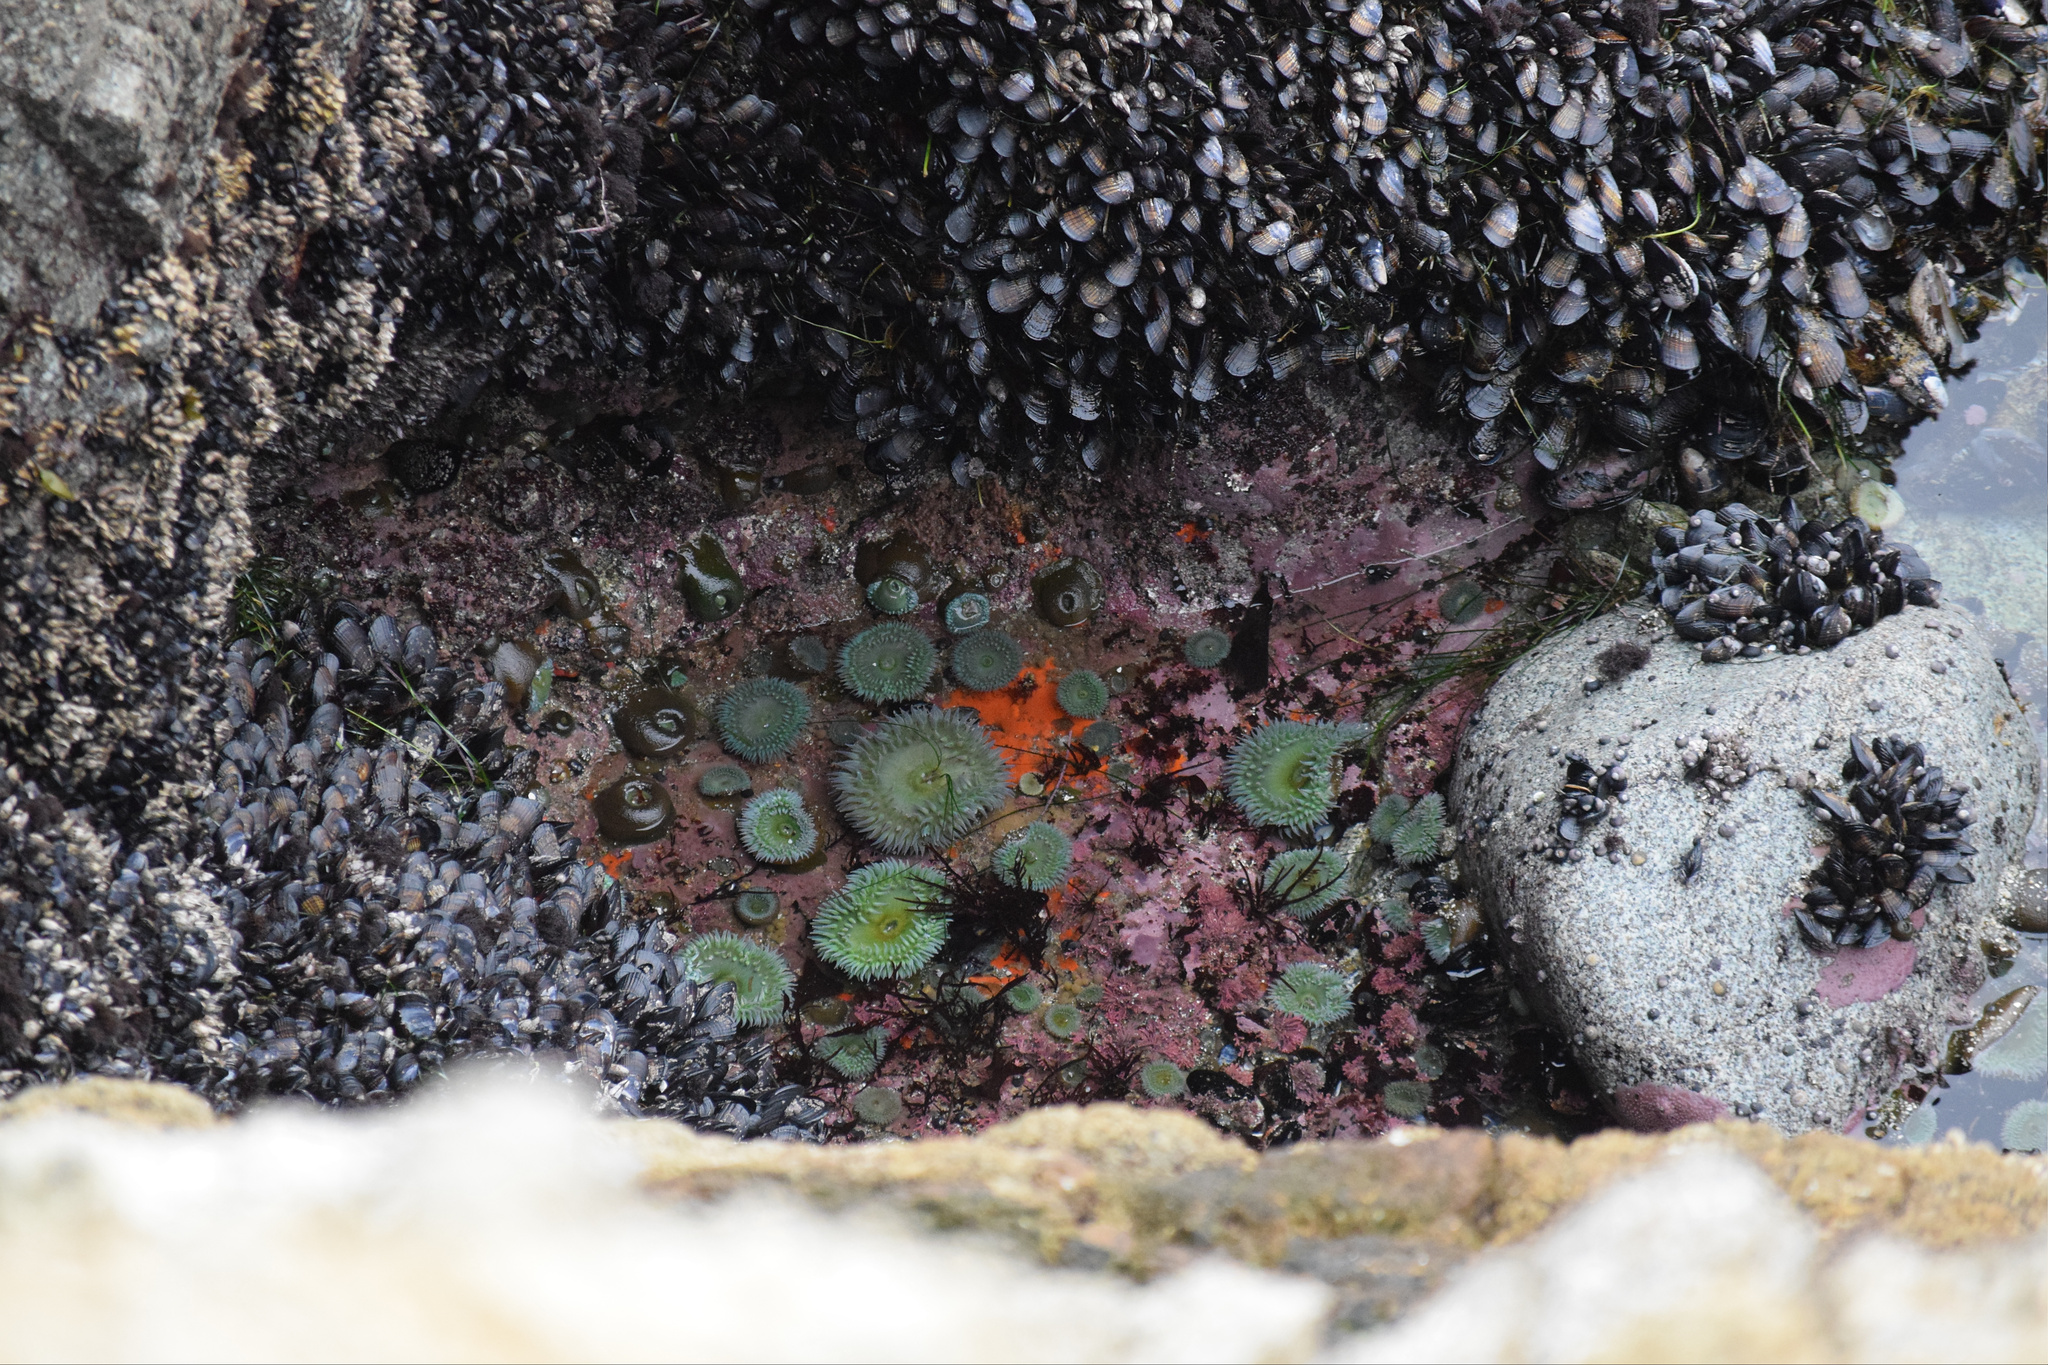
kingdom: Animalia
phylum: Cnidaria
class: Anthozoa
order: Actiniaria
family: Actiniidae
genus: Anthopleura
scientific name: Anthopleura xanthogrammica
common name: Giant green anemone
